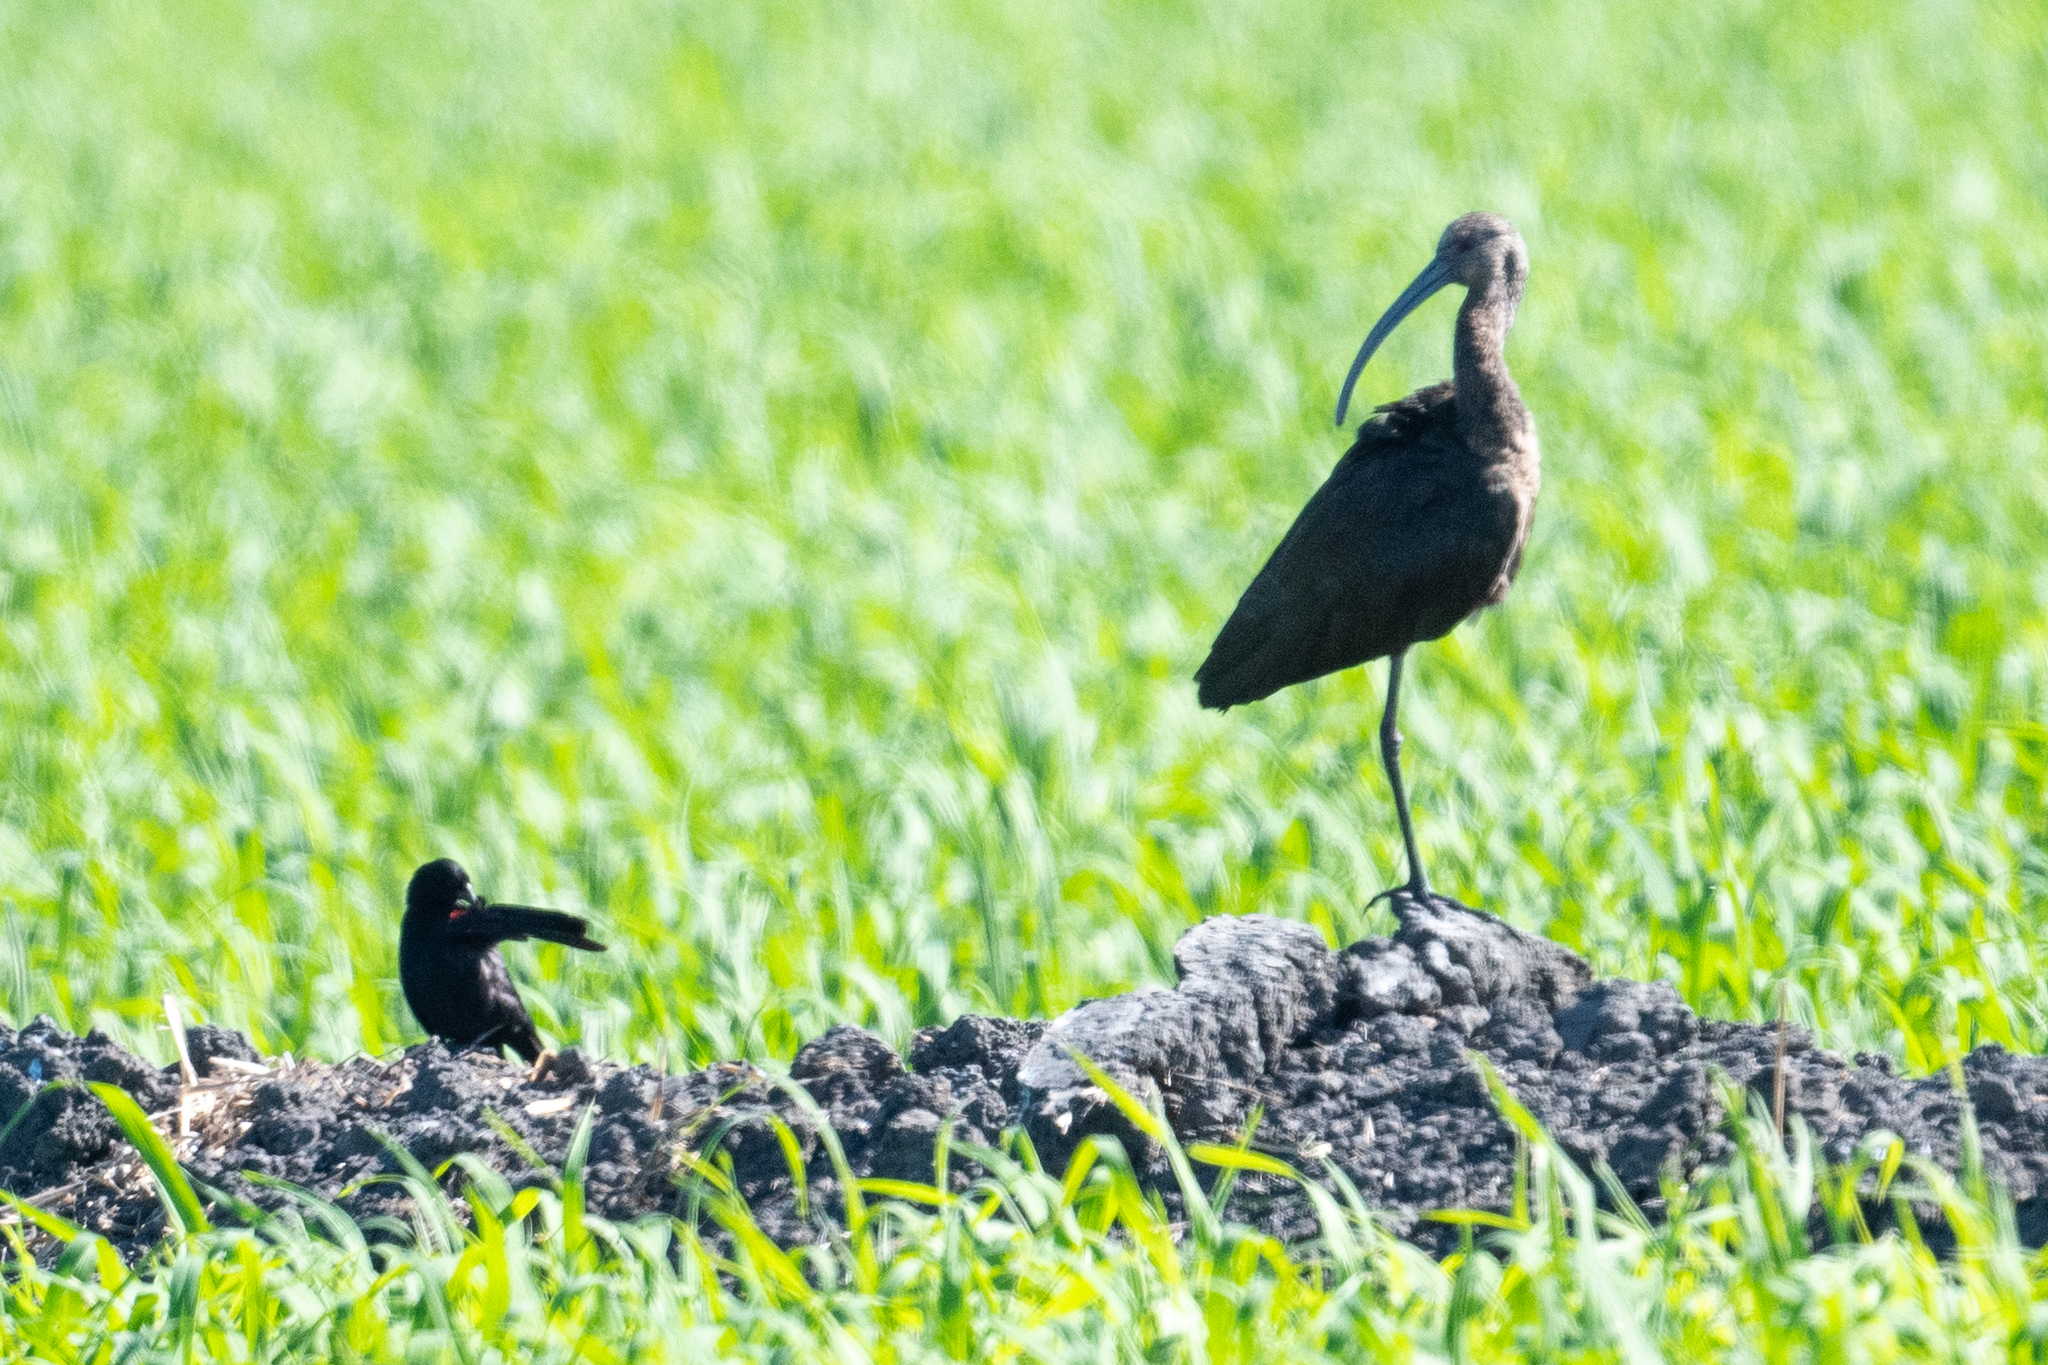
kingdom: Animalia
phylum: Chordata
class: Aves
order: Pelecaniformes
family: Threskiornithidae
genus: Plegadis
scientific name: Plegadis chihi
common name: White-faced ibis
